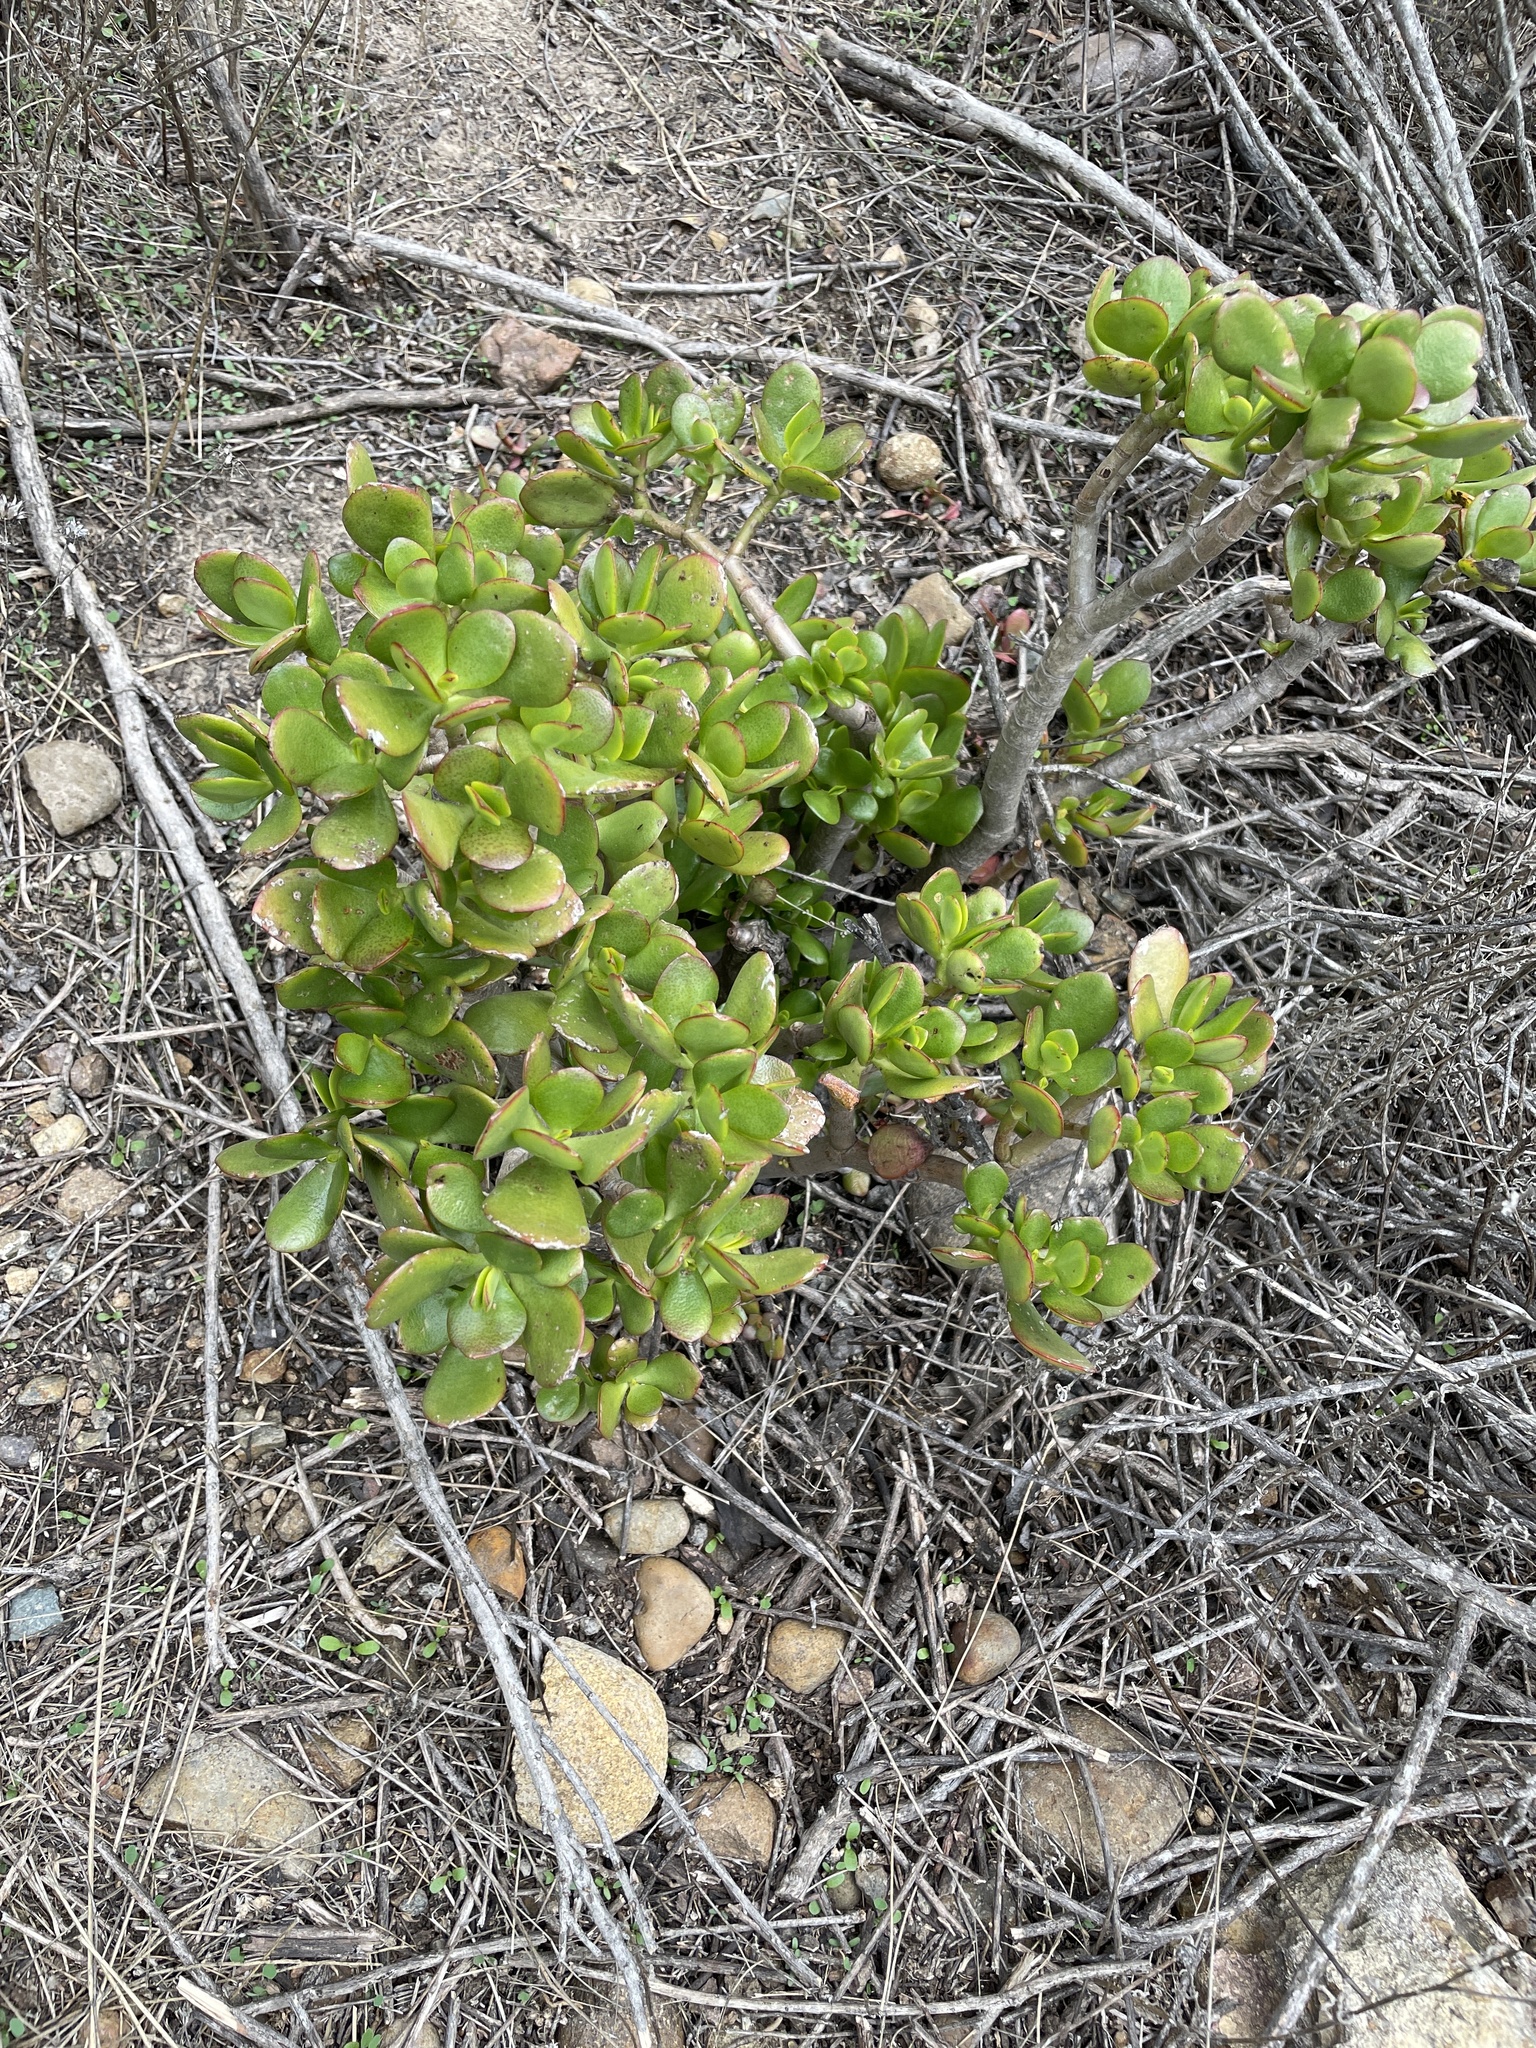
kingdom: Plantae
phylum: Tracheophyta
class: Magnoliopsida
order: Saxifragales
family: Crassulaceae
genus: Crassula
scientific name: Crassula ovata
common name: Jade plant
